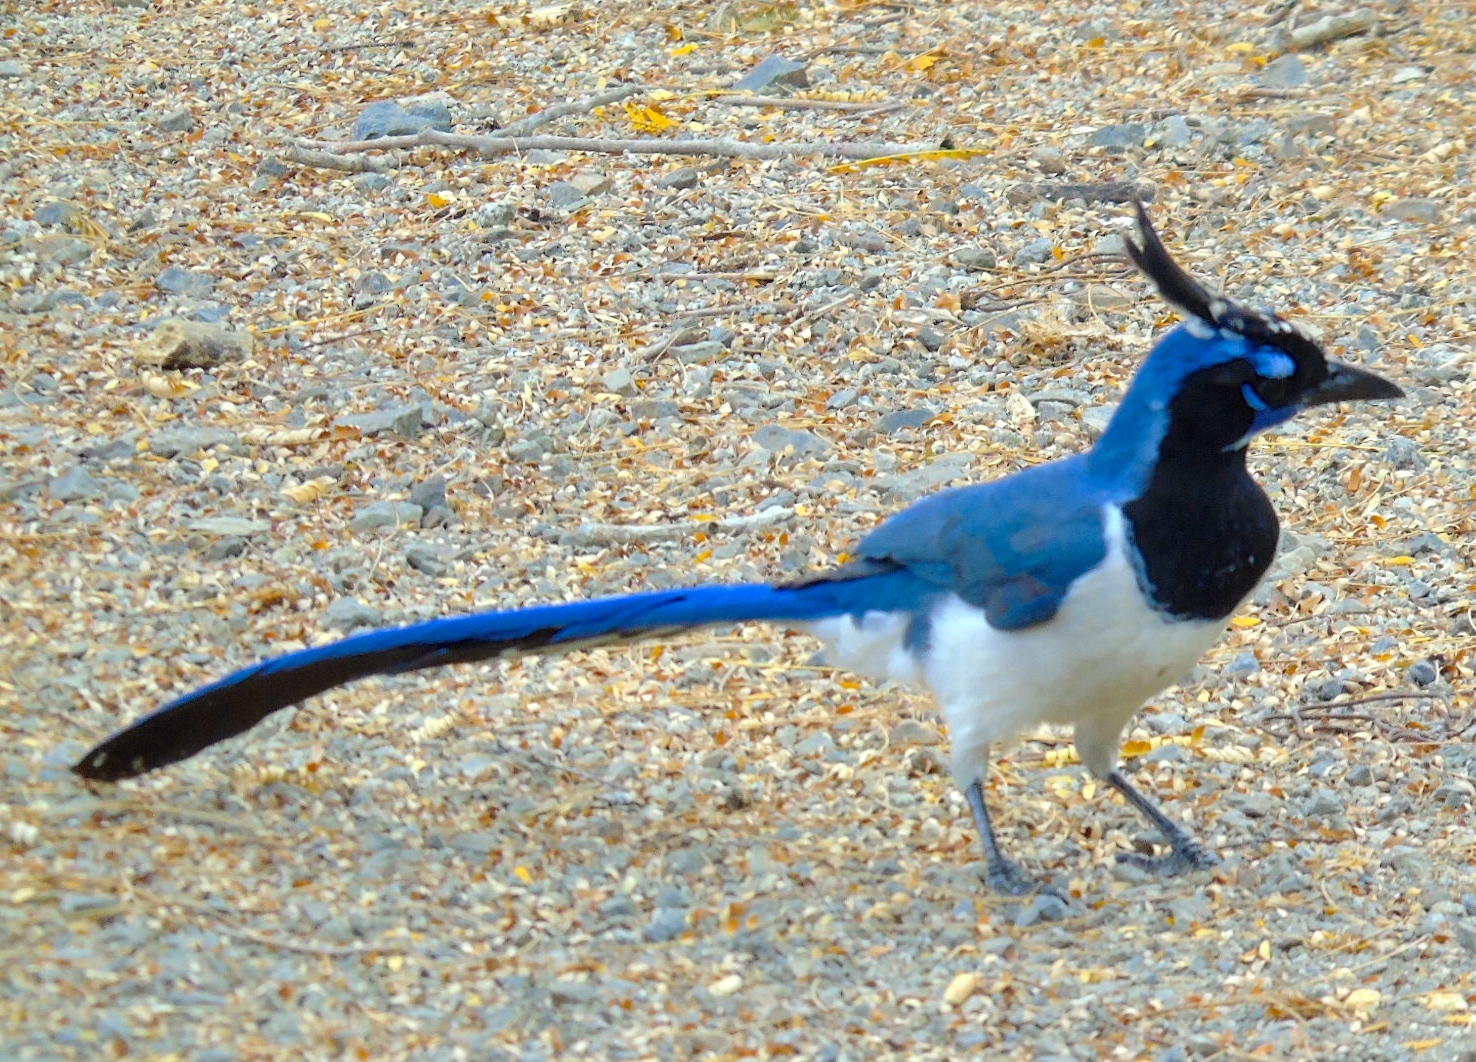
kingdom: Animalia
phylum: Chordata
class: Aves
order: Passeriformes
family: Corvidae
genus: Calocitta
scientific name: Calocitta colliei
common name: Black-throated magpie-jay
